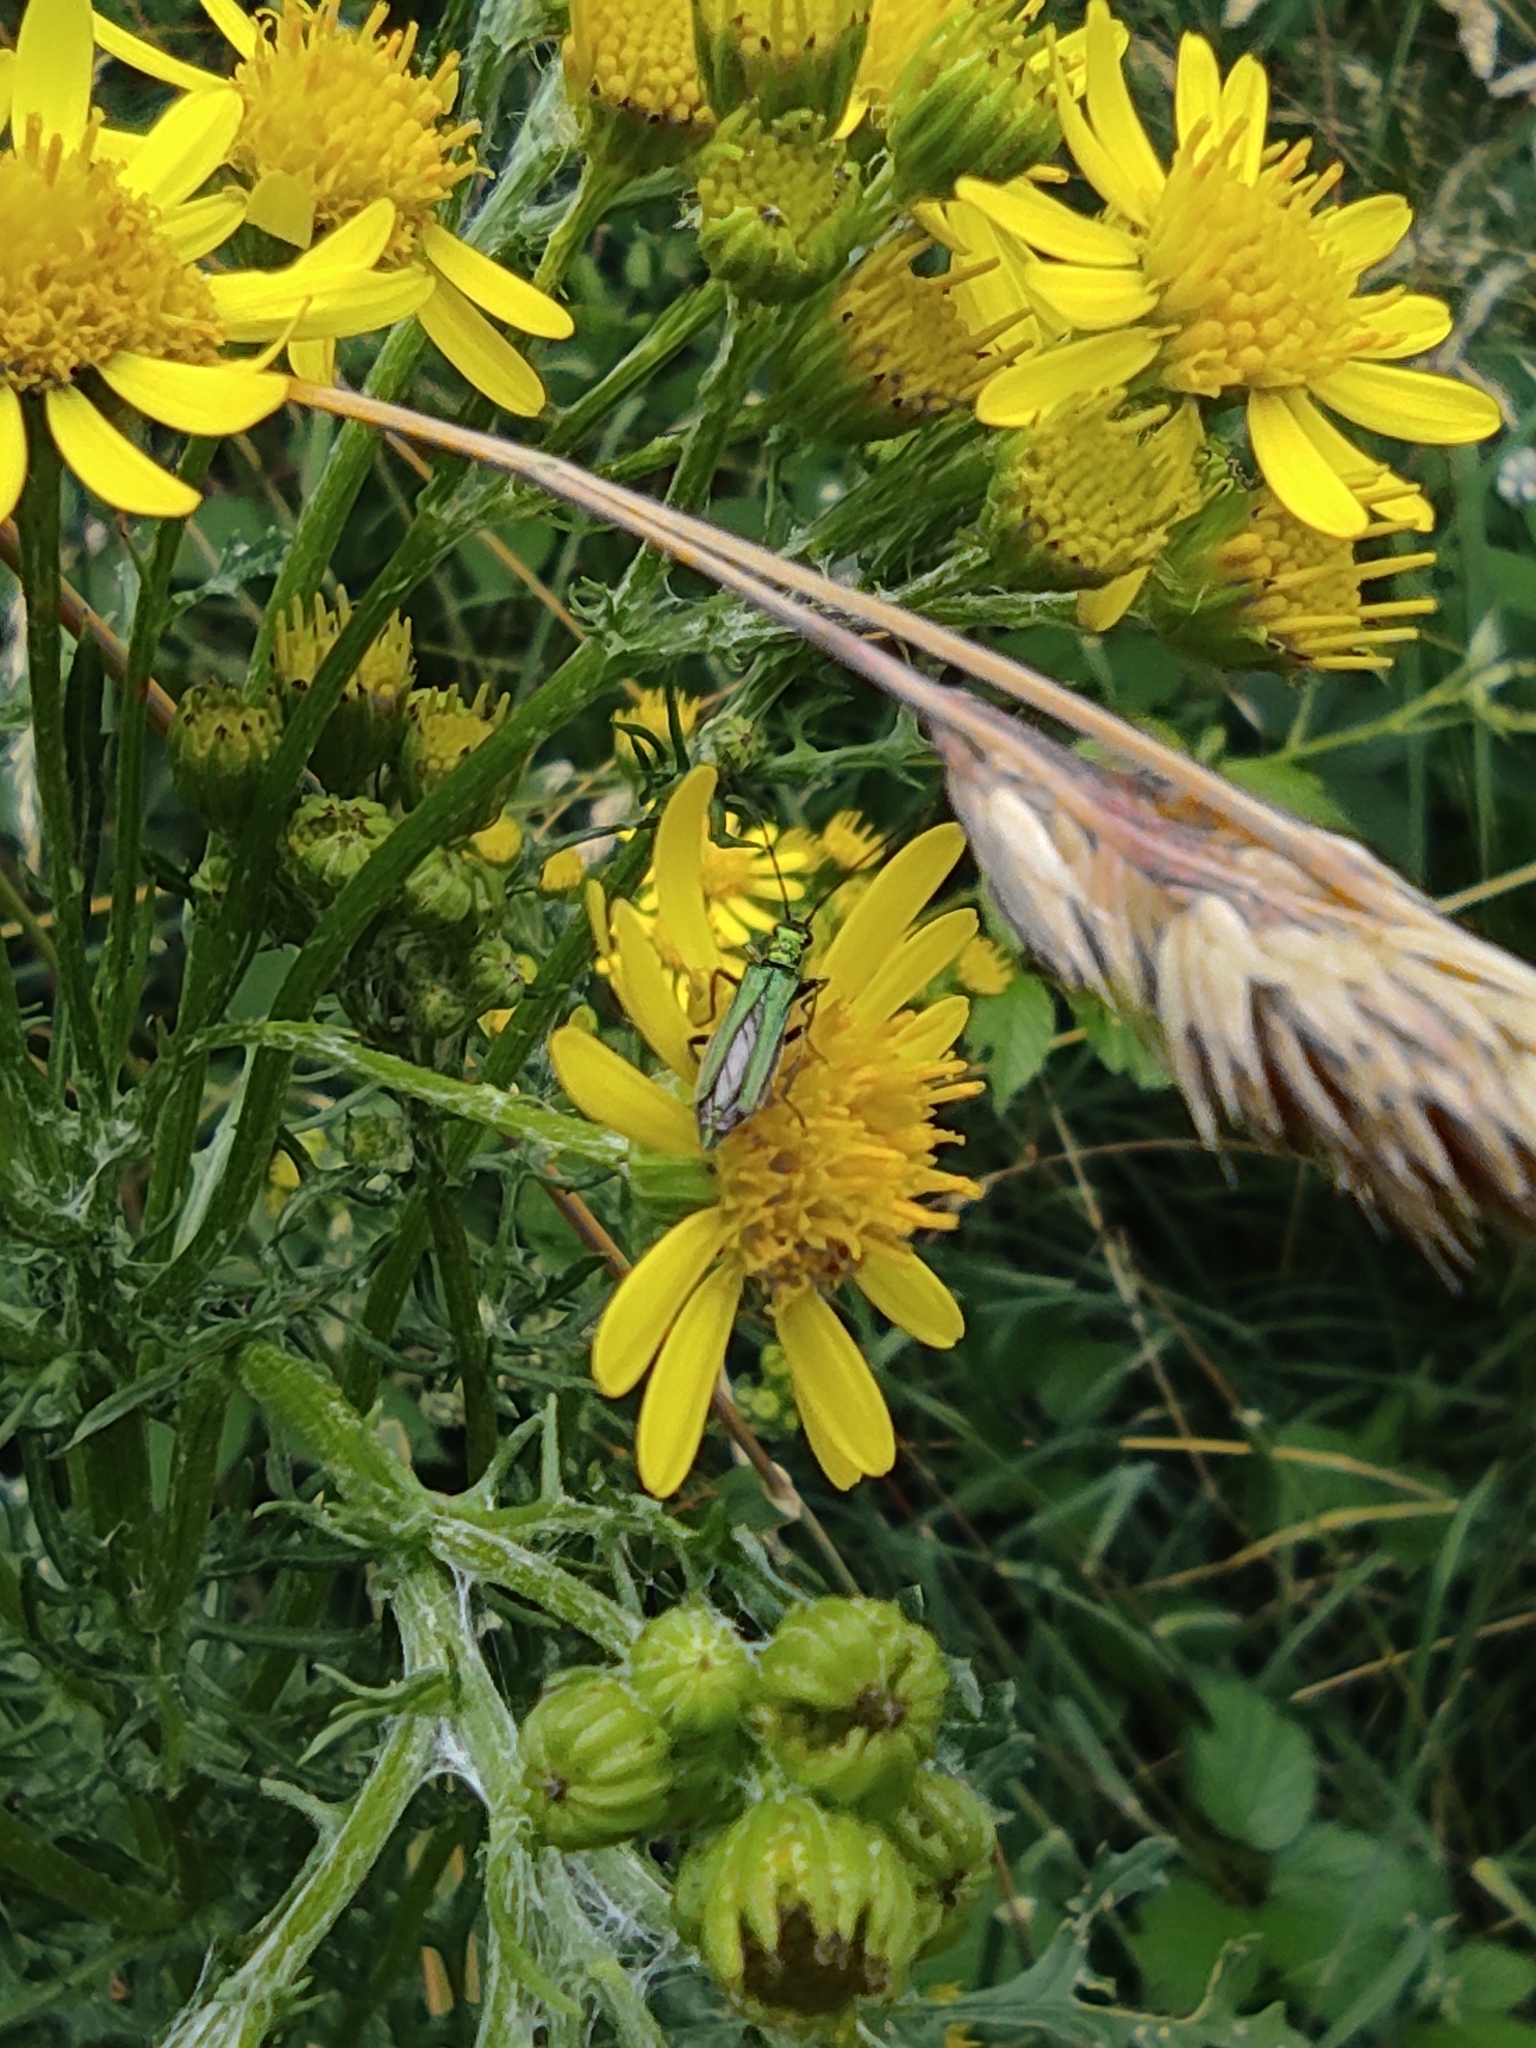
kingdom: Animalia
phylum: Arthropoda
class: Insecta
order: Coleoptera
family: Oedemeridae
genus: Oedemera
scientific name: Oedemera nobilis
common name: Swollen-thighed beetle
